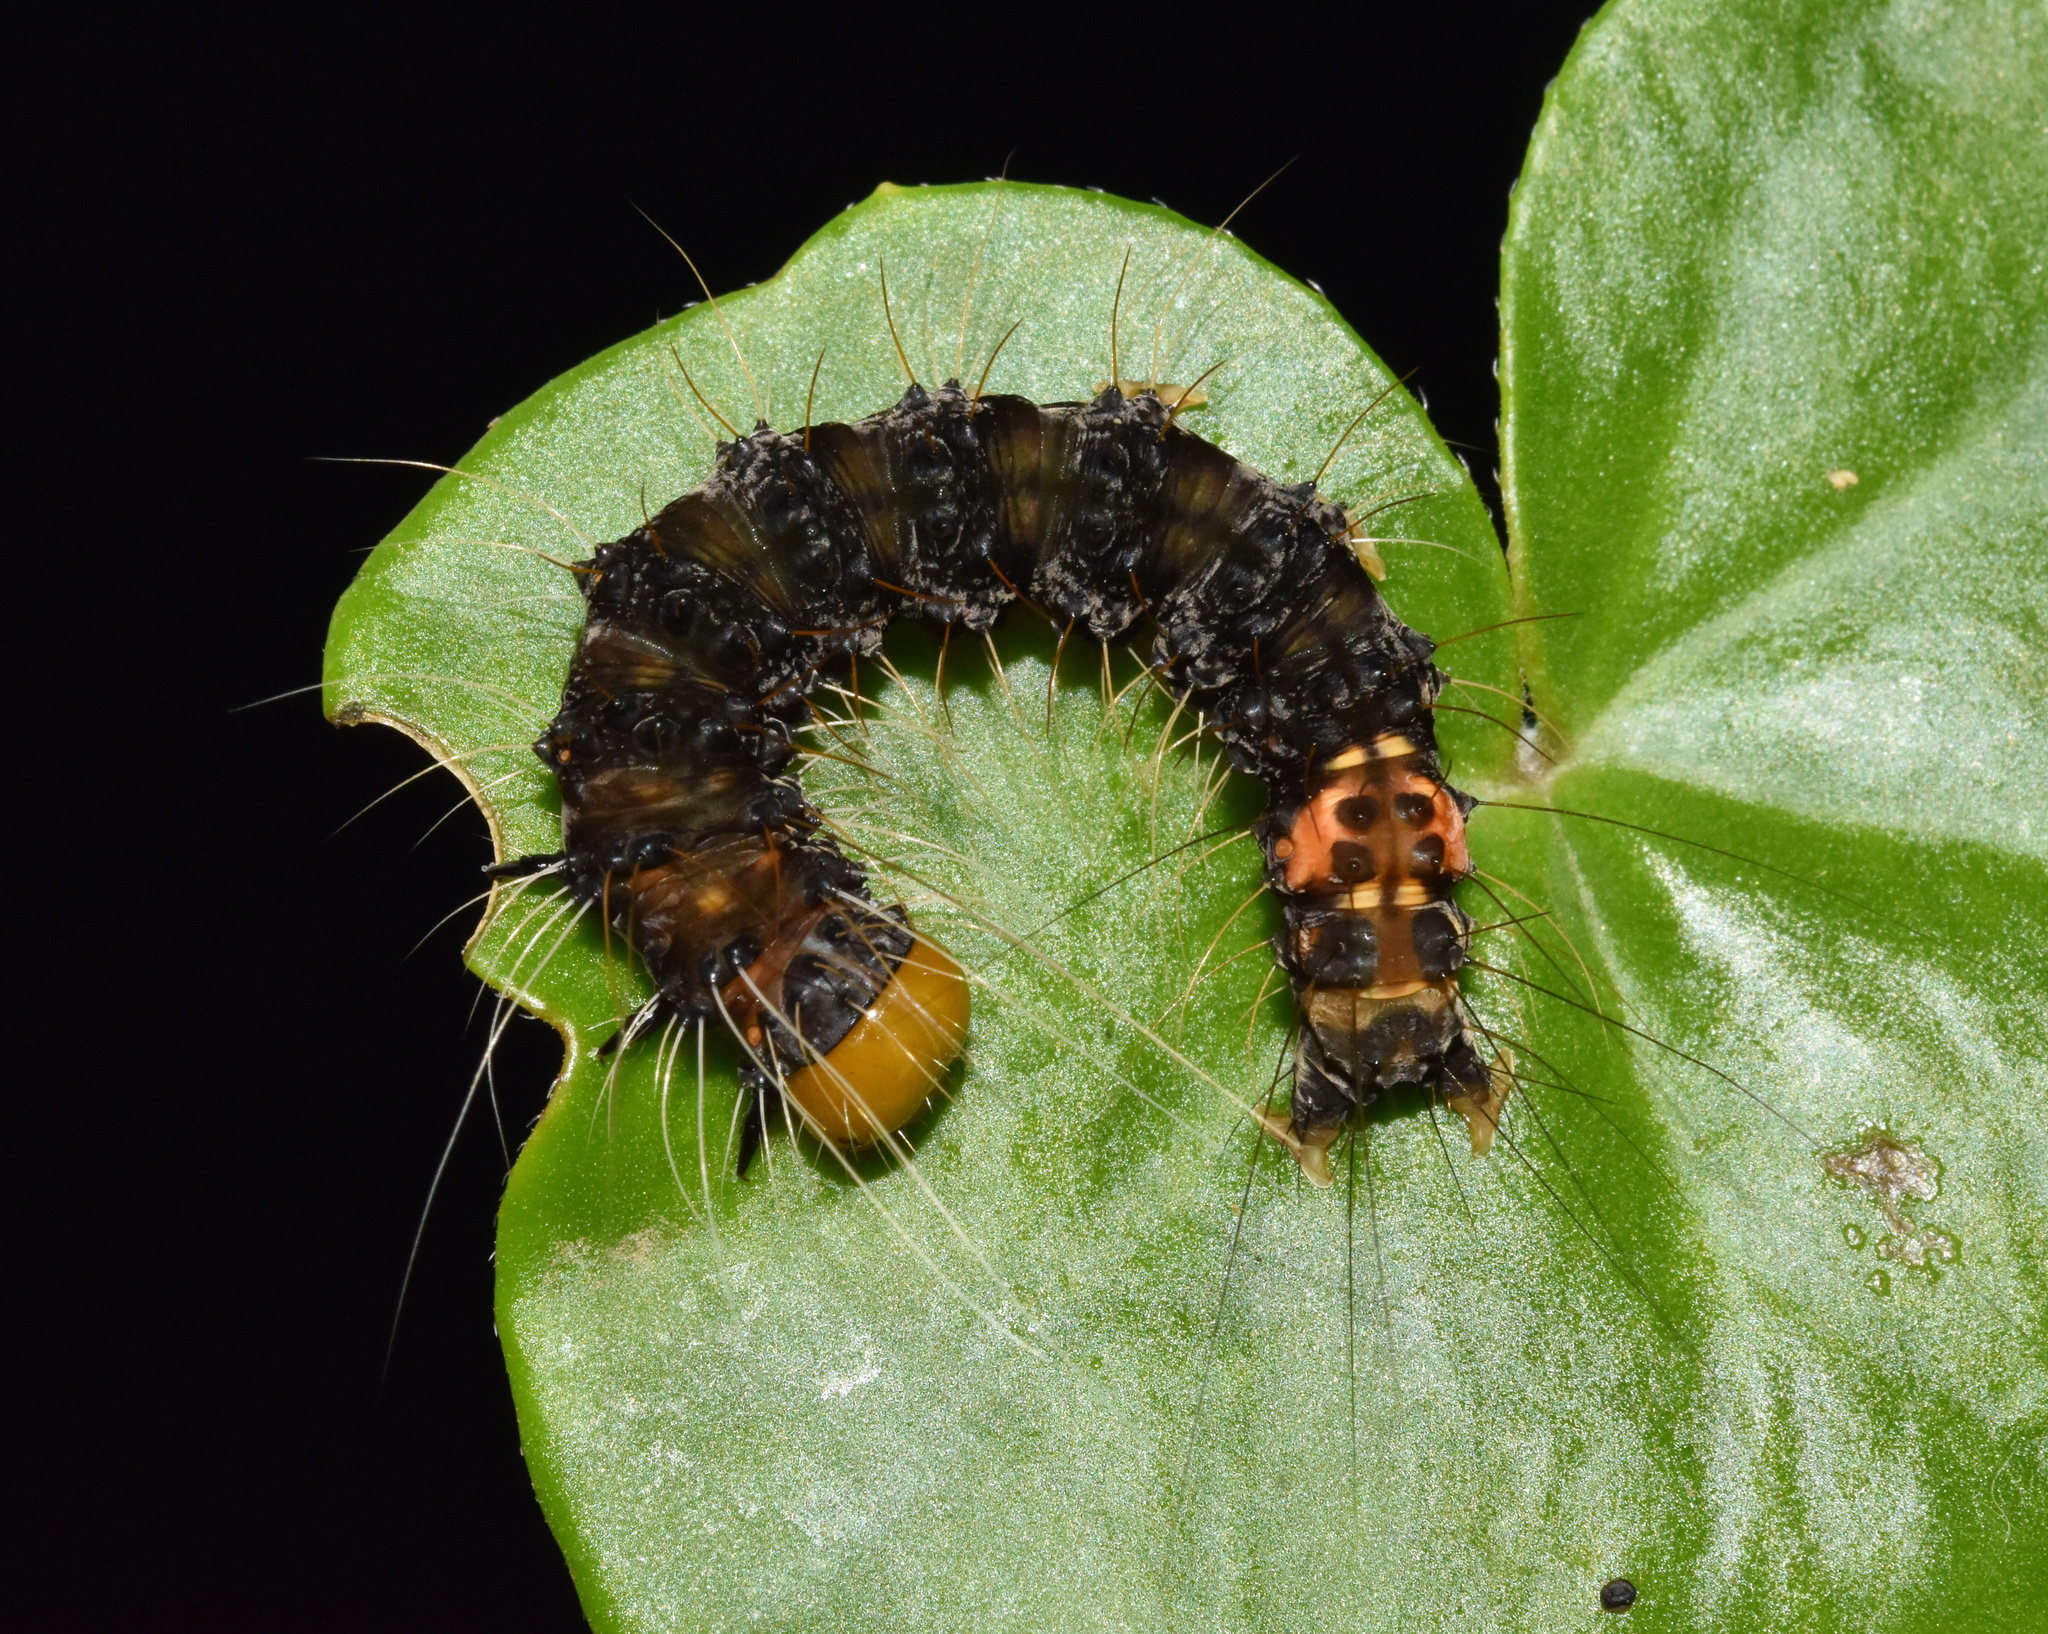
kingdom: Animalia
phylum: Arthropoda
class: Insecta
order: Lepidoptera
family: Erebidae
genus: Amerila
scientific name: Amerila bubo
